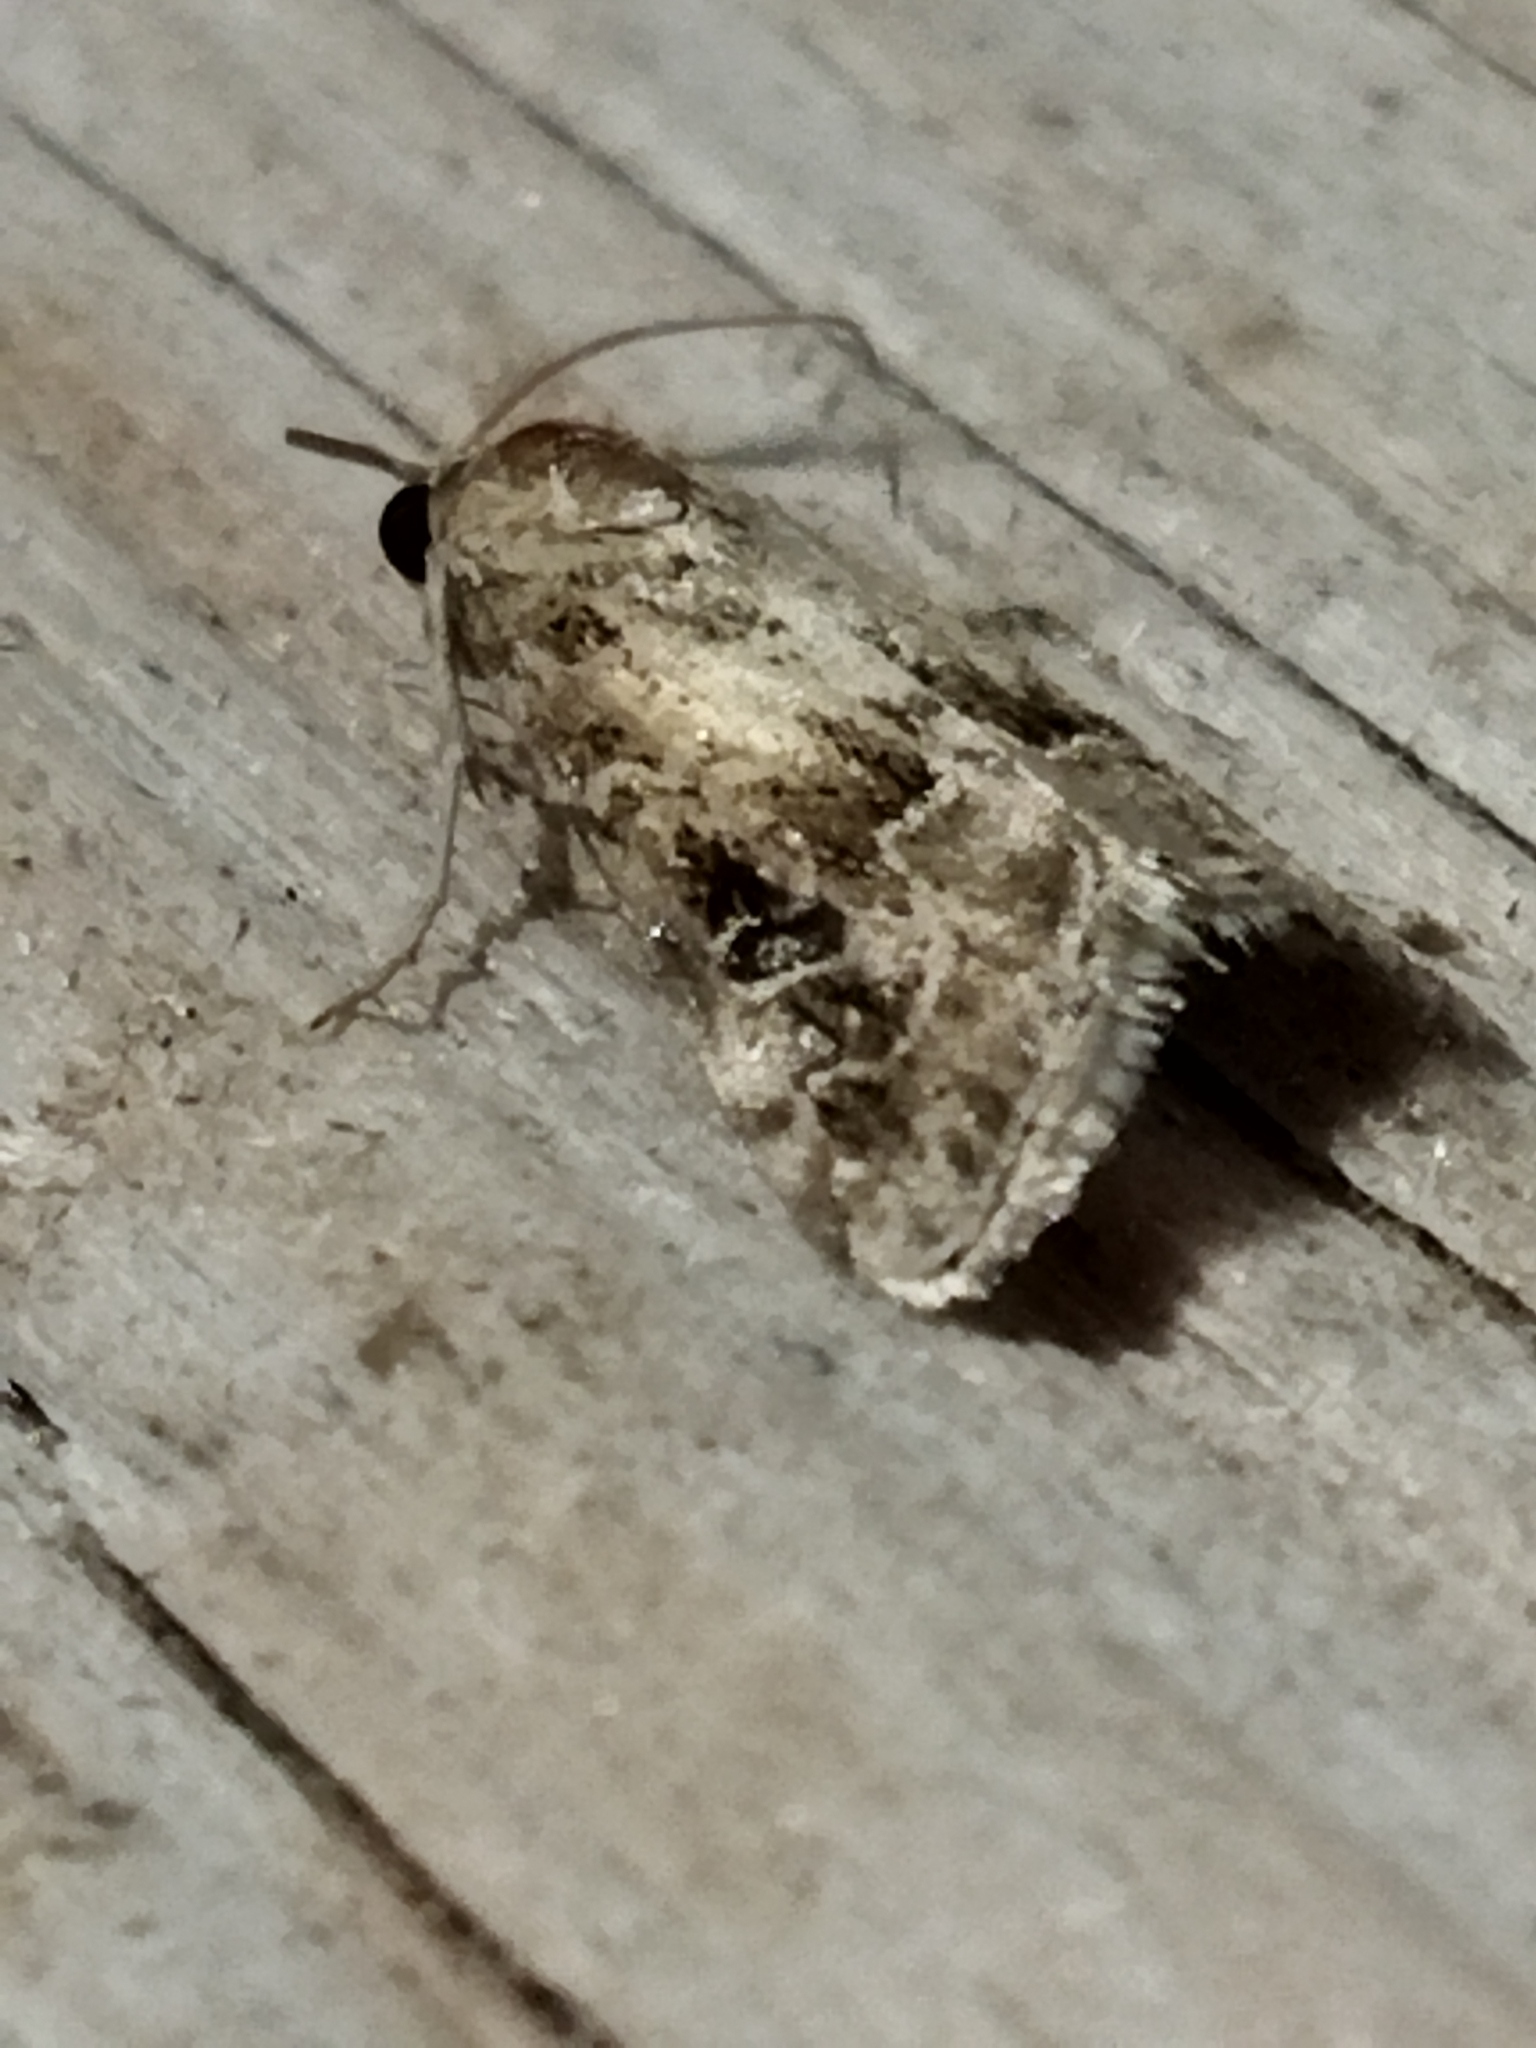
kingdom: Animalia
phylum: Arthropoda
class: Insecta
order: Lepidoptera
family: Crambidae
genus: Hellula
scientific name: Hellula undalis
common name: Cabbage webworm
